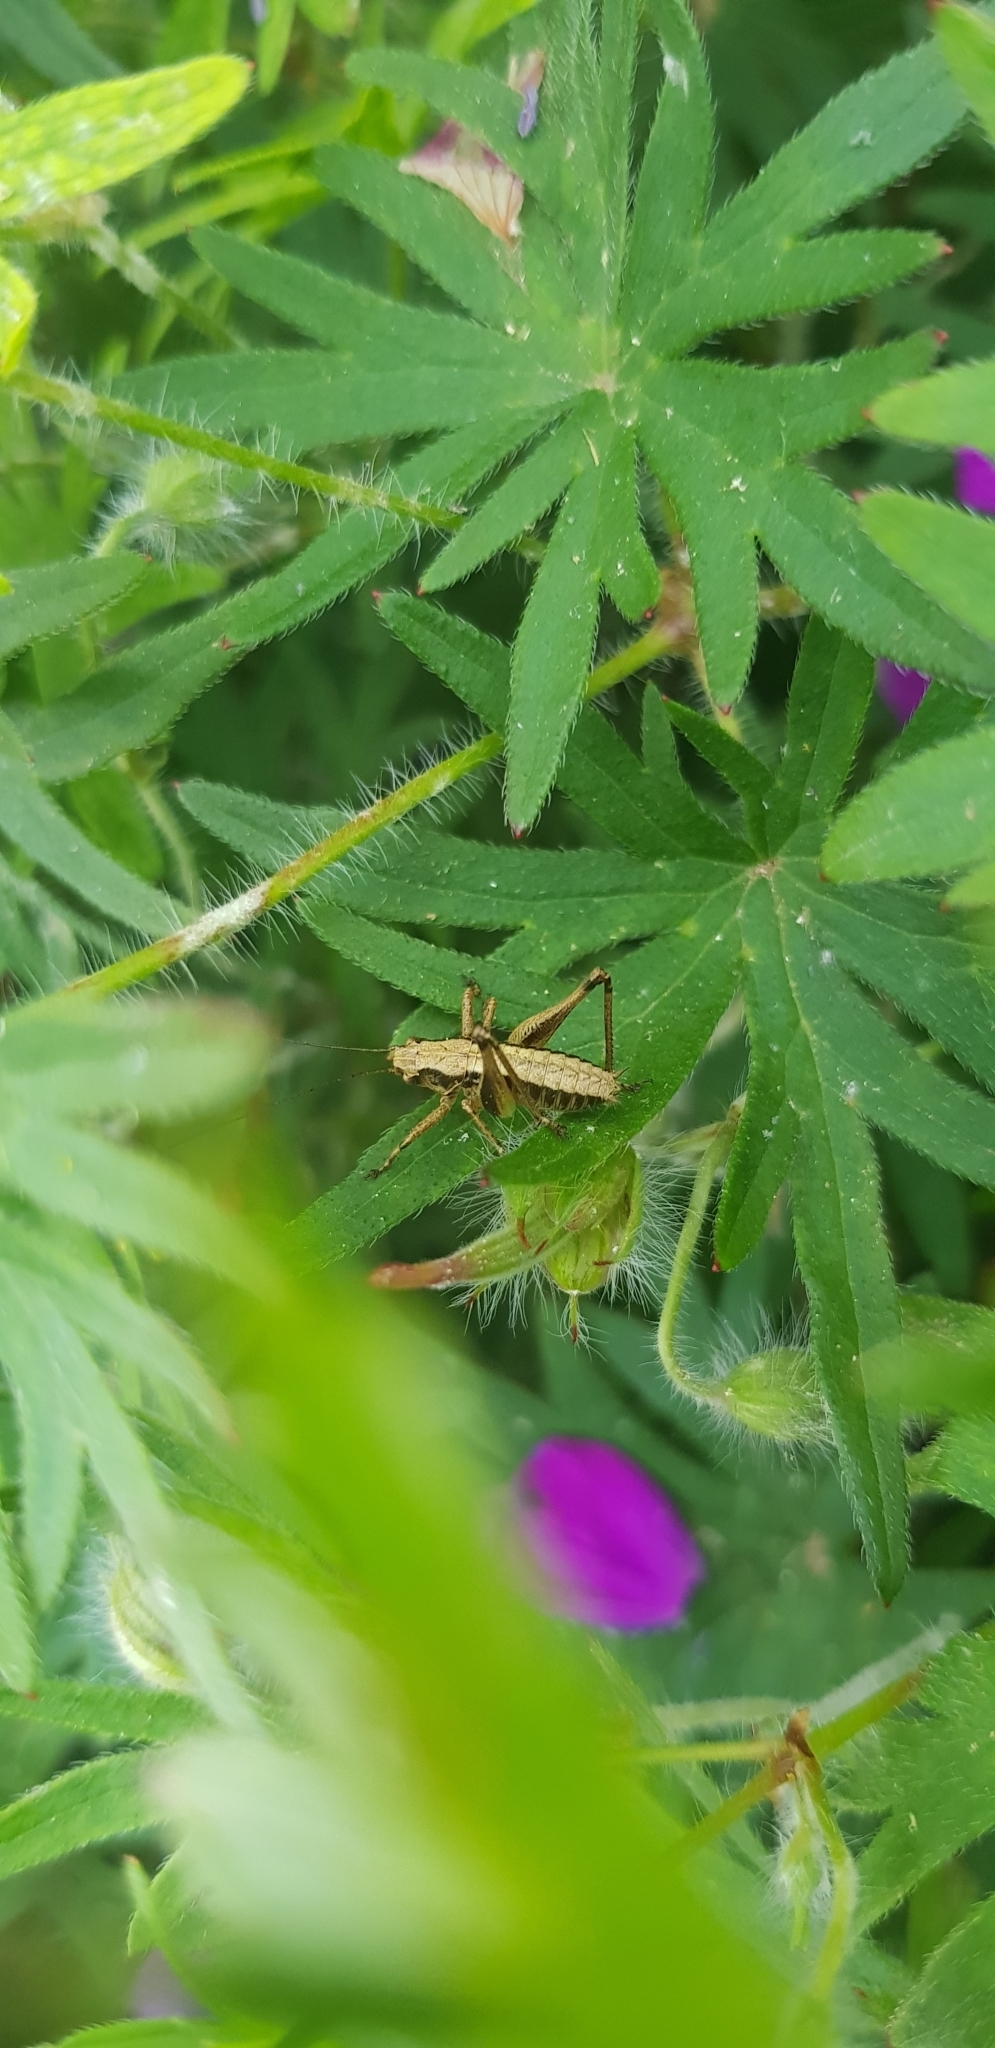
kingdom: Animalia
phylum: Arthropoda
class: Insecta
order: Orthoptera
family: Tettigoniidae
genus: Pholidoptera
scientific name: Pholidoptera griseoaptera
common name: Dark bush-cricket
